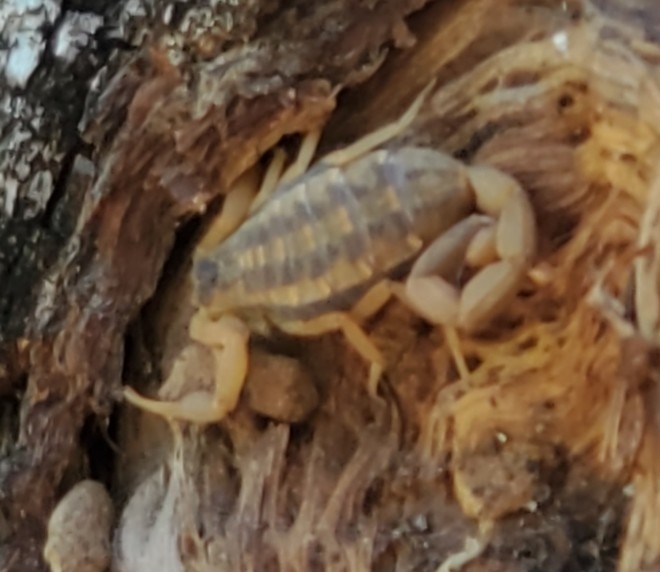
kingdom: Animalia
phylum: Arthropoda
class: Arachnida
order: Scorpiones
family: Buthidae
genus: Centruroides
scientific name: Centruroides vittatus
